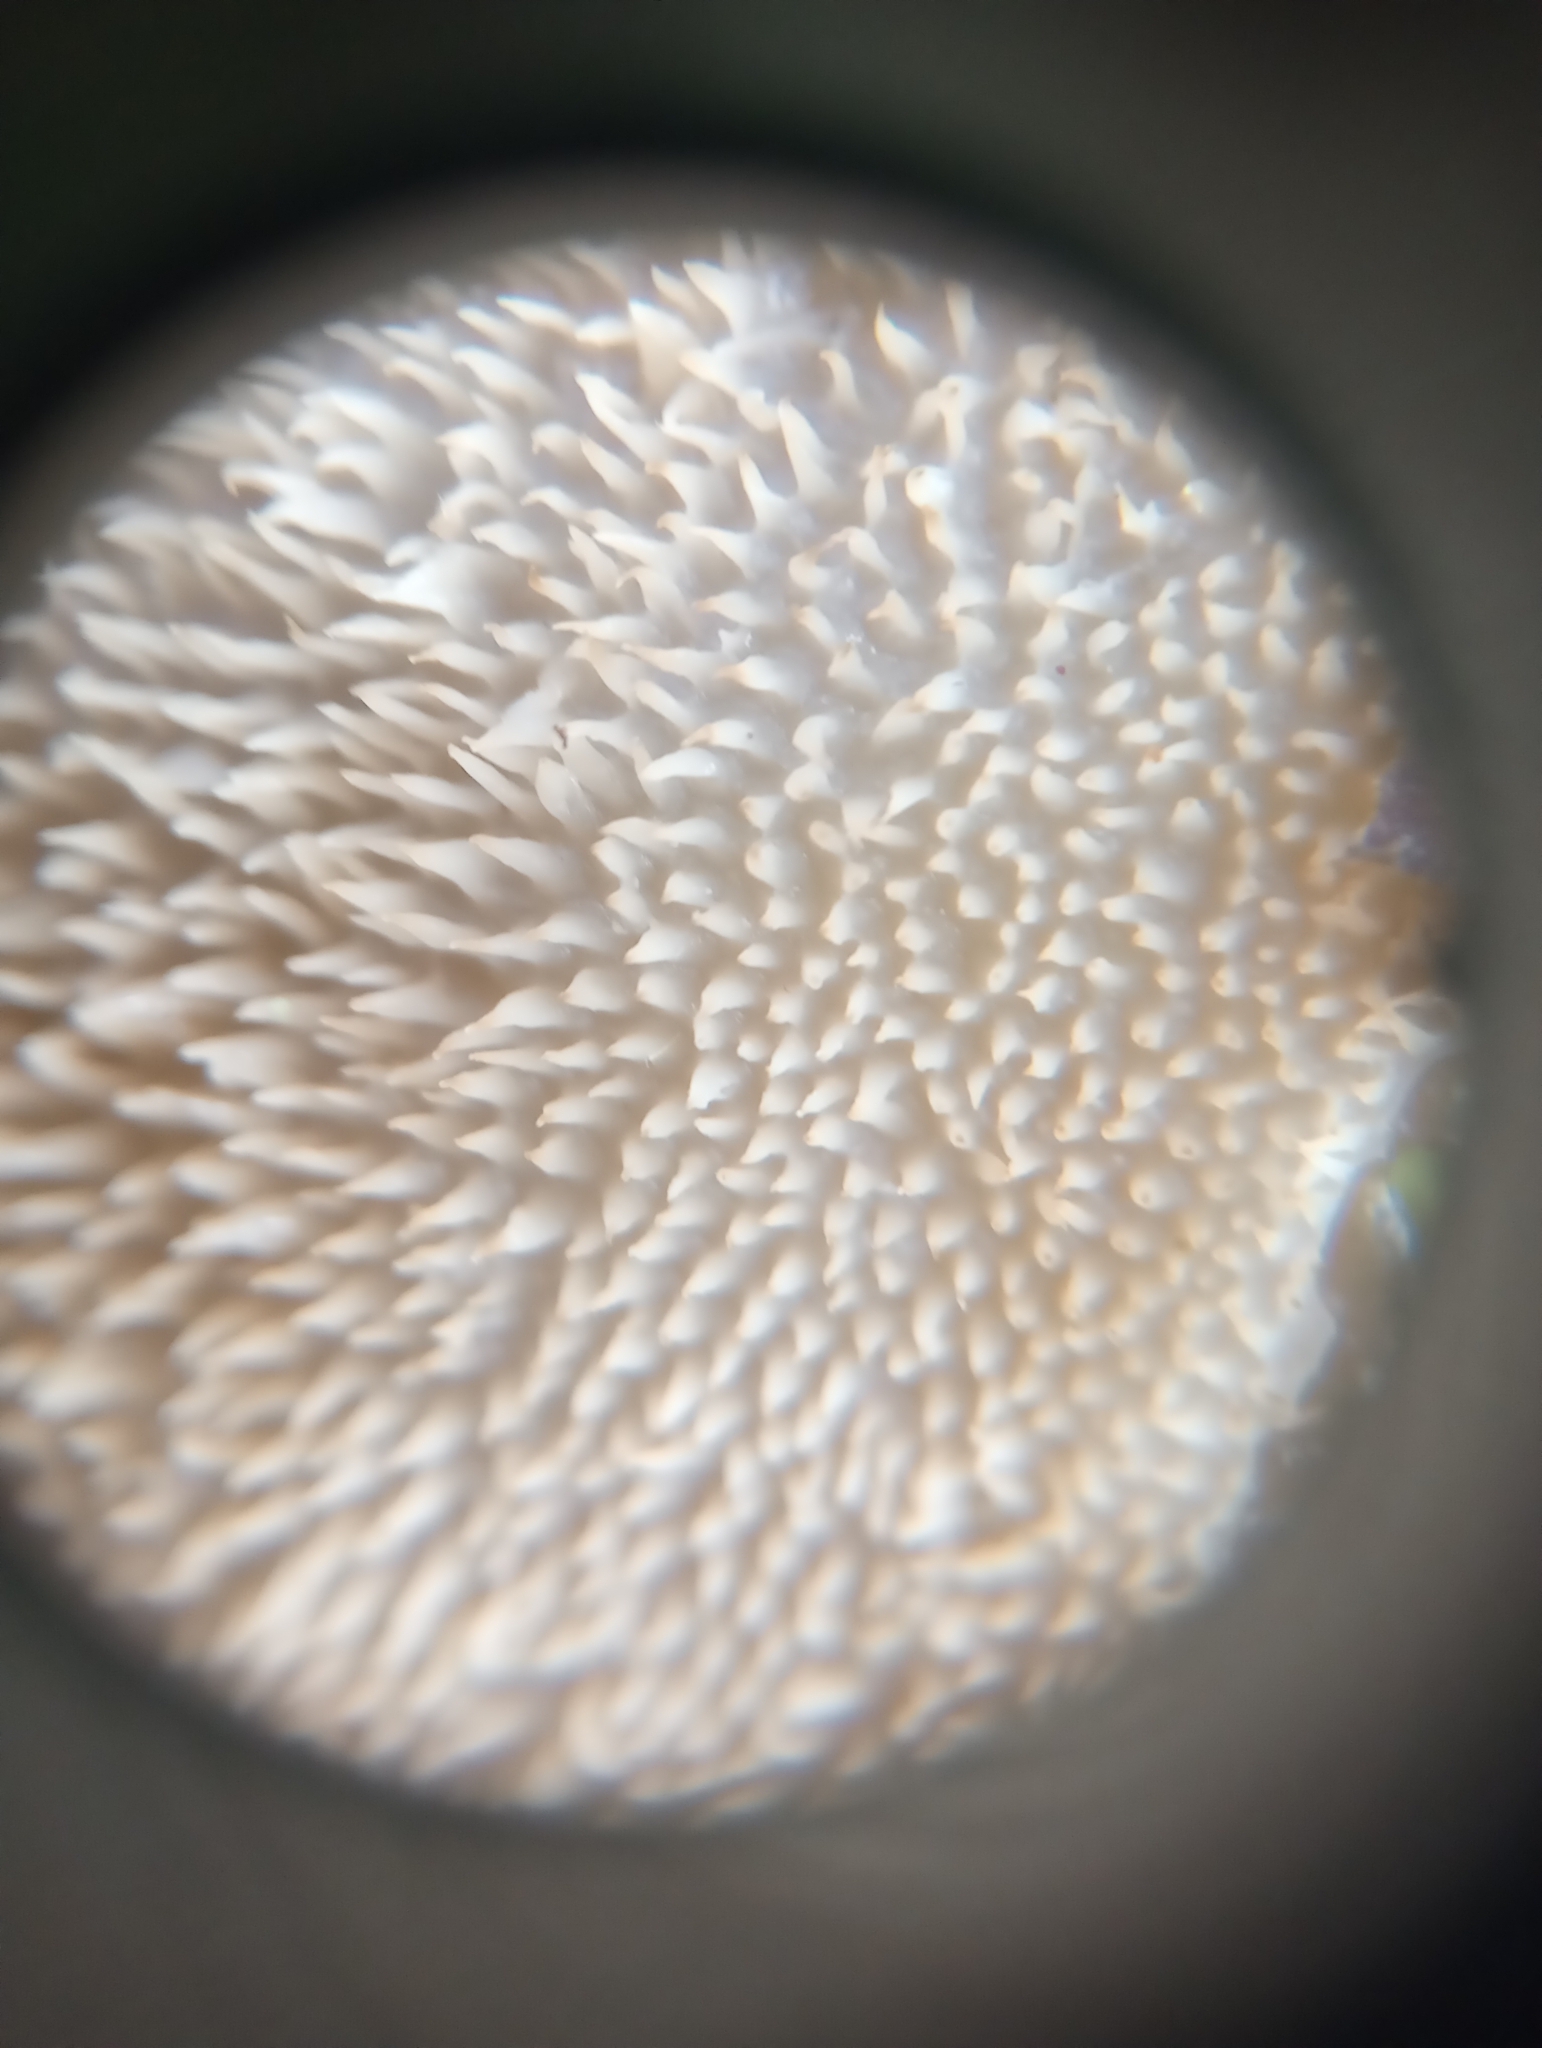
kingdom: Fungi
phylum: Basidiomycota
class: Agaricomycetes
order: Auriculariales
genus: Pseudohydnum
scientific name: Pseudohydnum gelatinosum
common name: Jelly tongue
